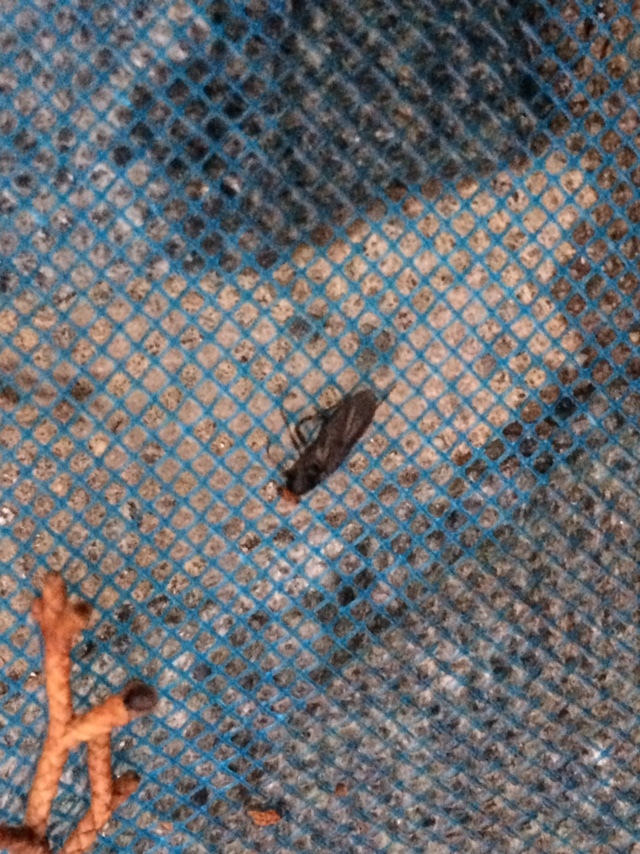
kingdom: Animalia
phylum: Arthropoda
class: Insecta
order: Diptera
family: Stratiomyidae
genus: Inopus
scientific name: Inopus rubriceps
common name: Soldier fly
